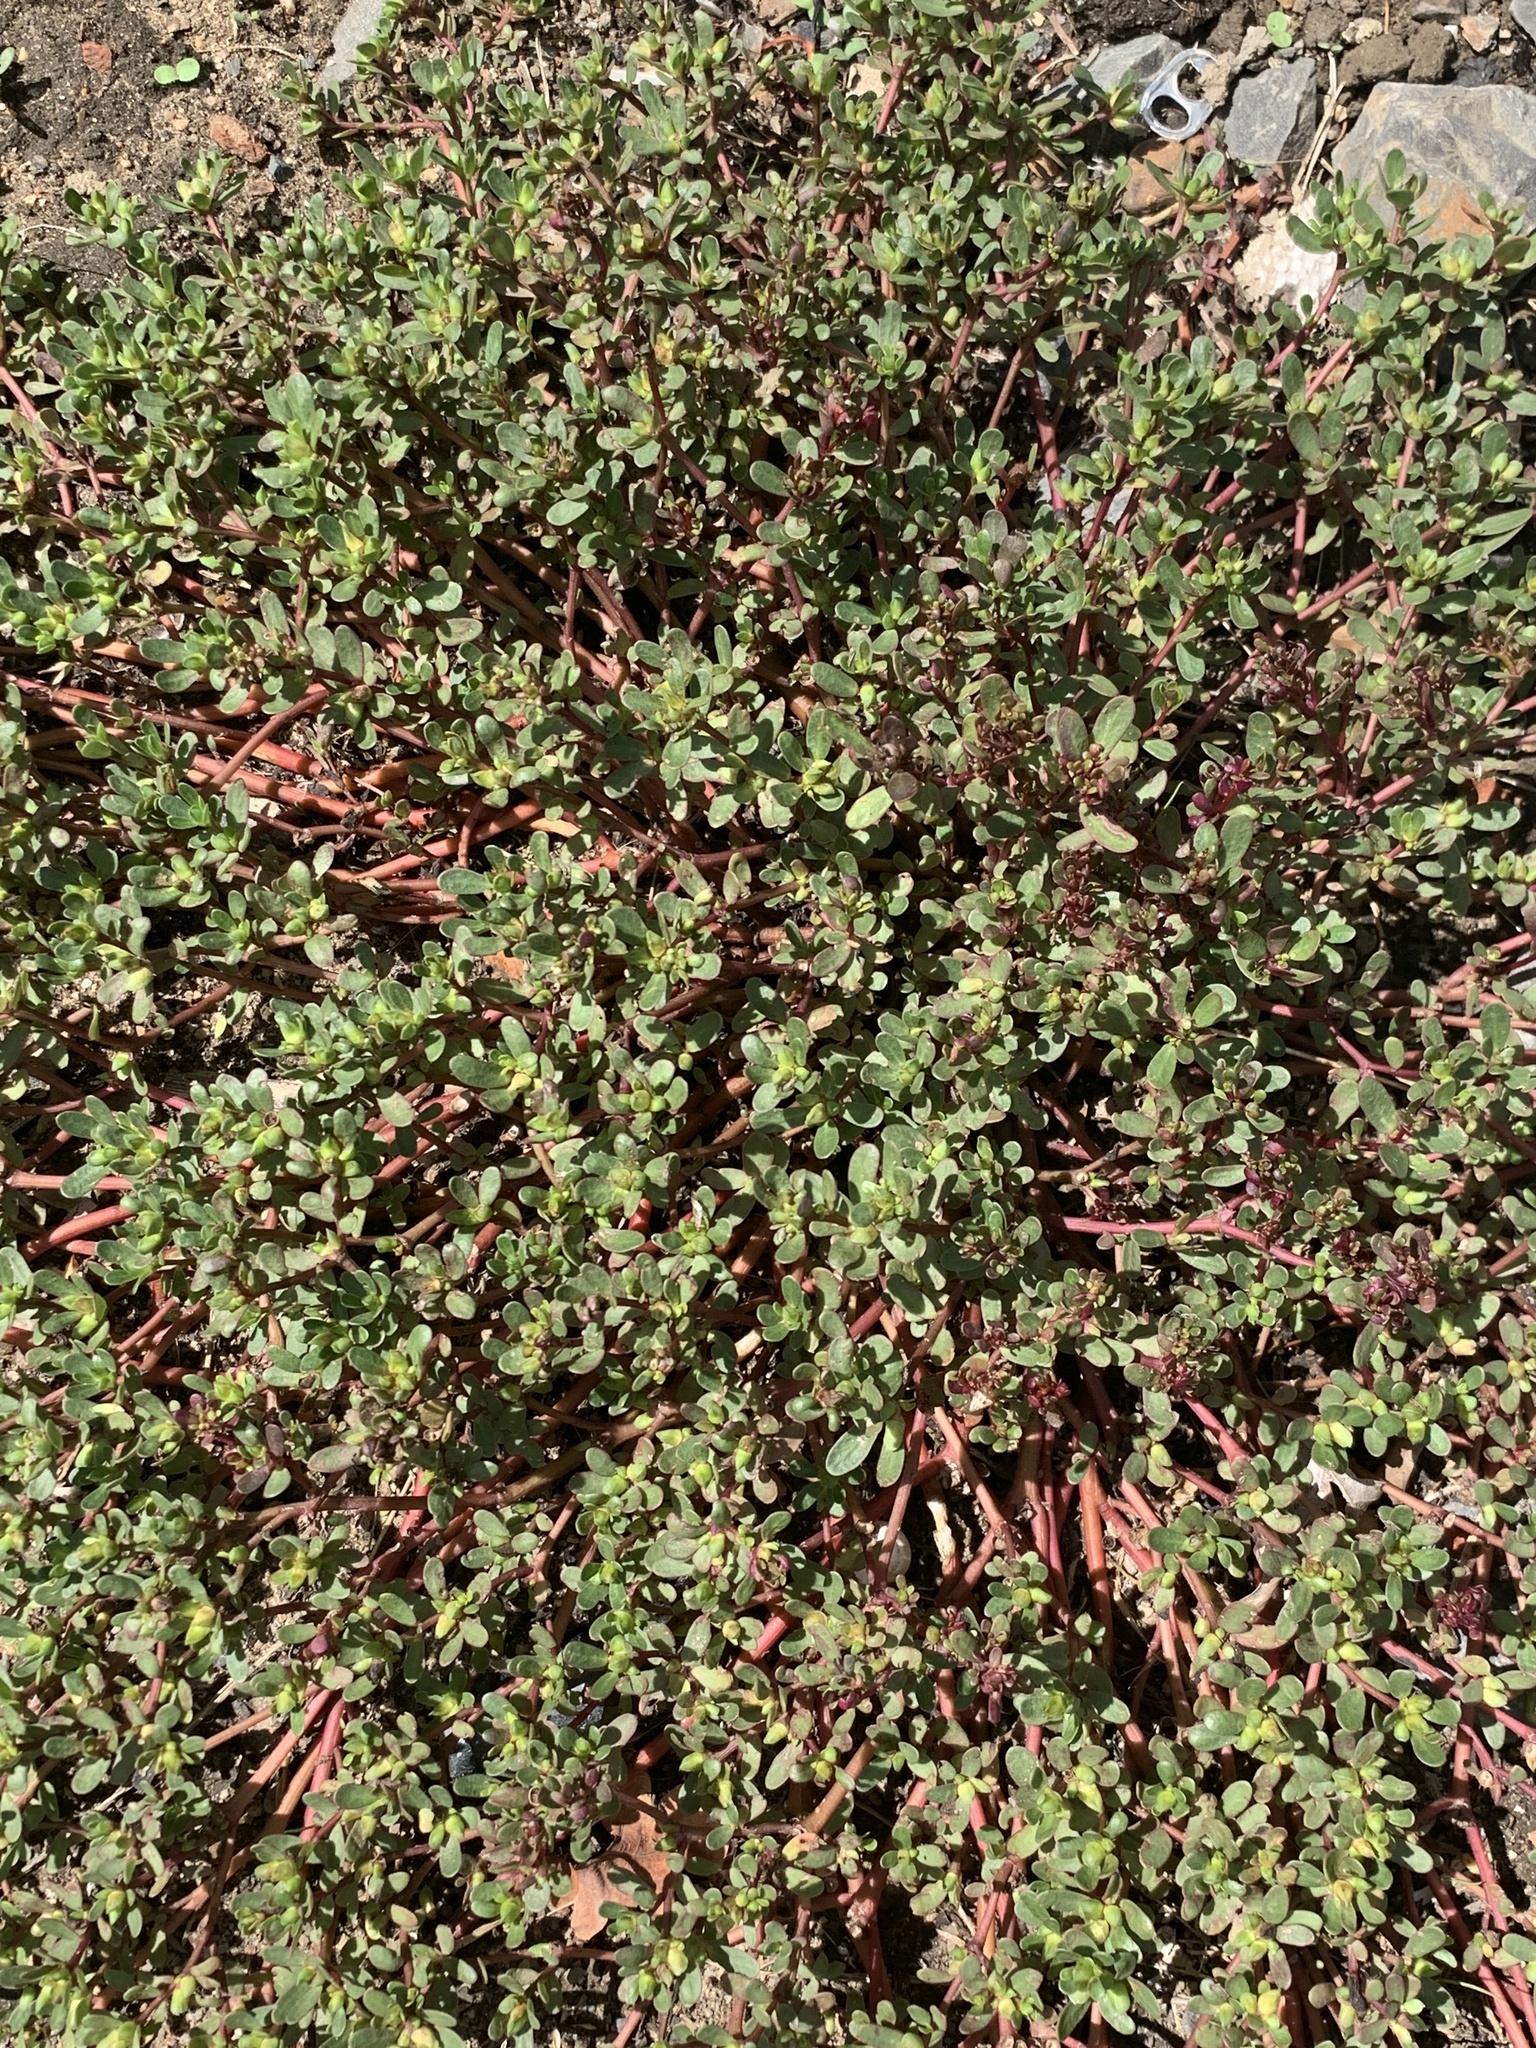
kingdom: Plantae
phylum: Tracheophyta
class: Magnoliopsida
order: Caryophyllales
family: Portulacaceae
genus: Portulaca
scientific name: Portulaca oleracea
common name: Common purslane
